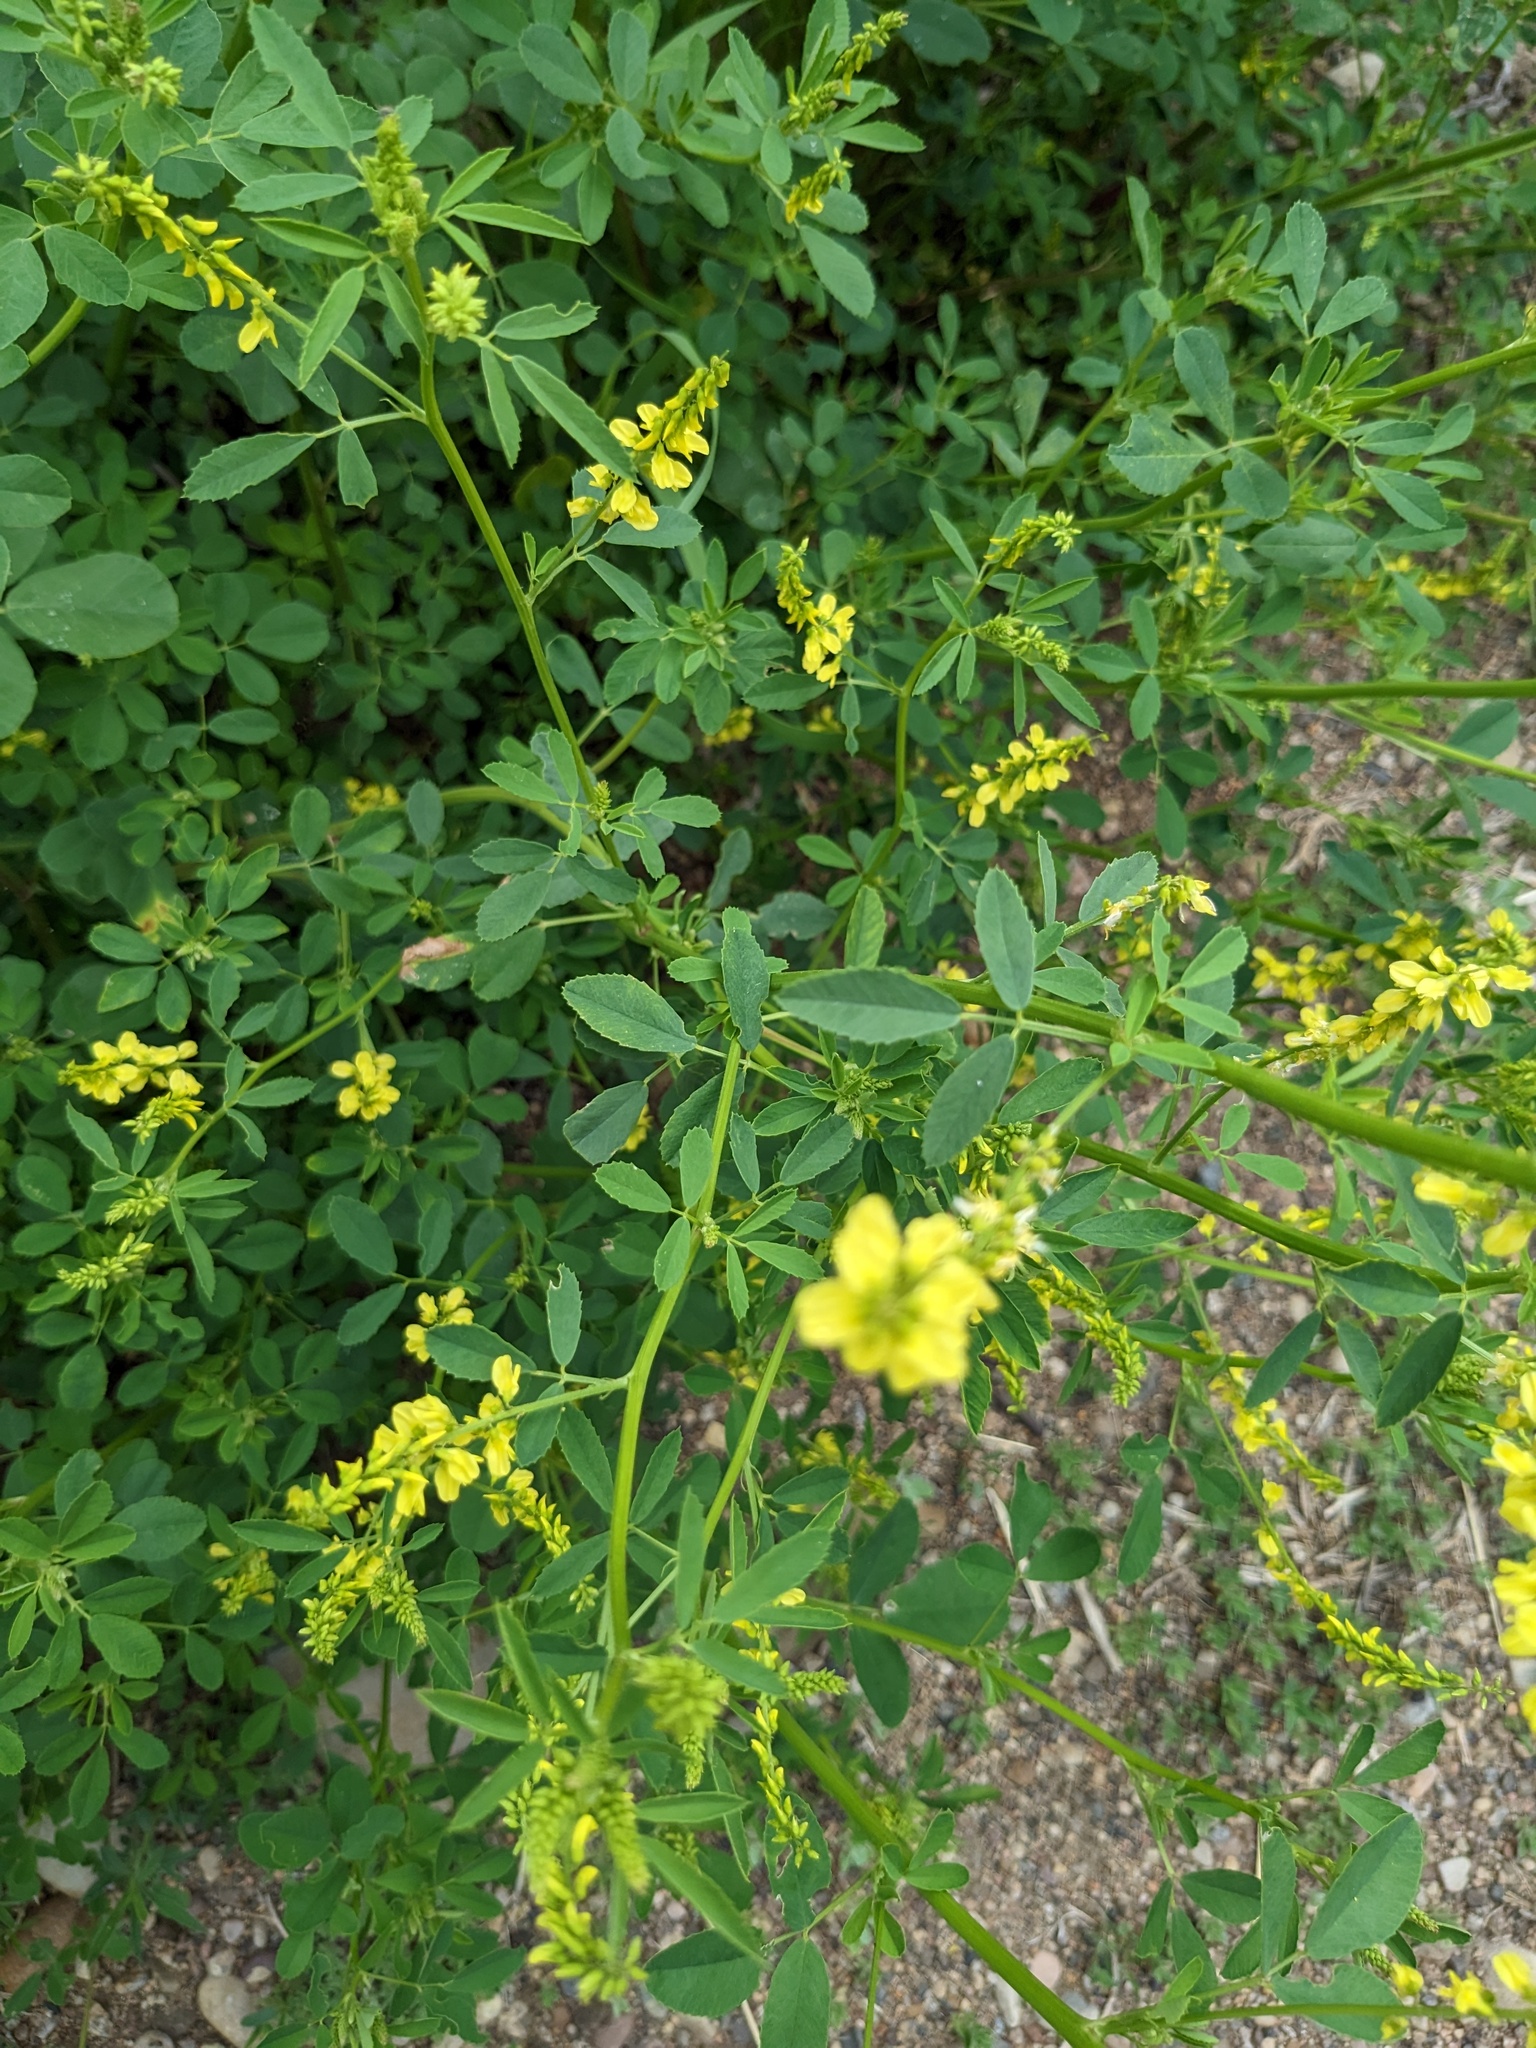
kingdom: Plantae
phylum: Tracheophyta
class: Magnoliopsida
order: Fabales
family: Fabaceae
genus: Melilotus
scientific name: Melilotus officinalis
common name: Sweetclover
